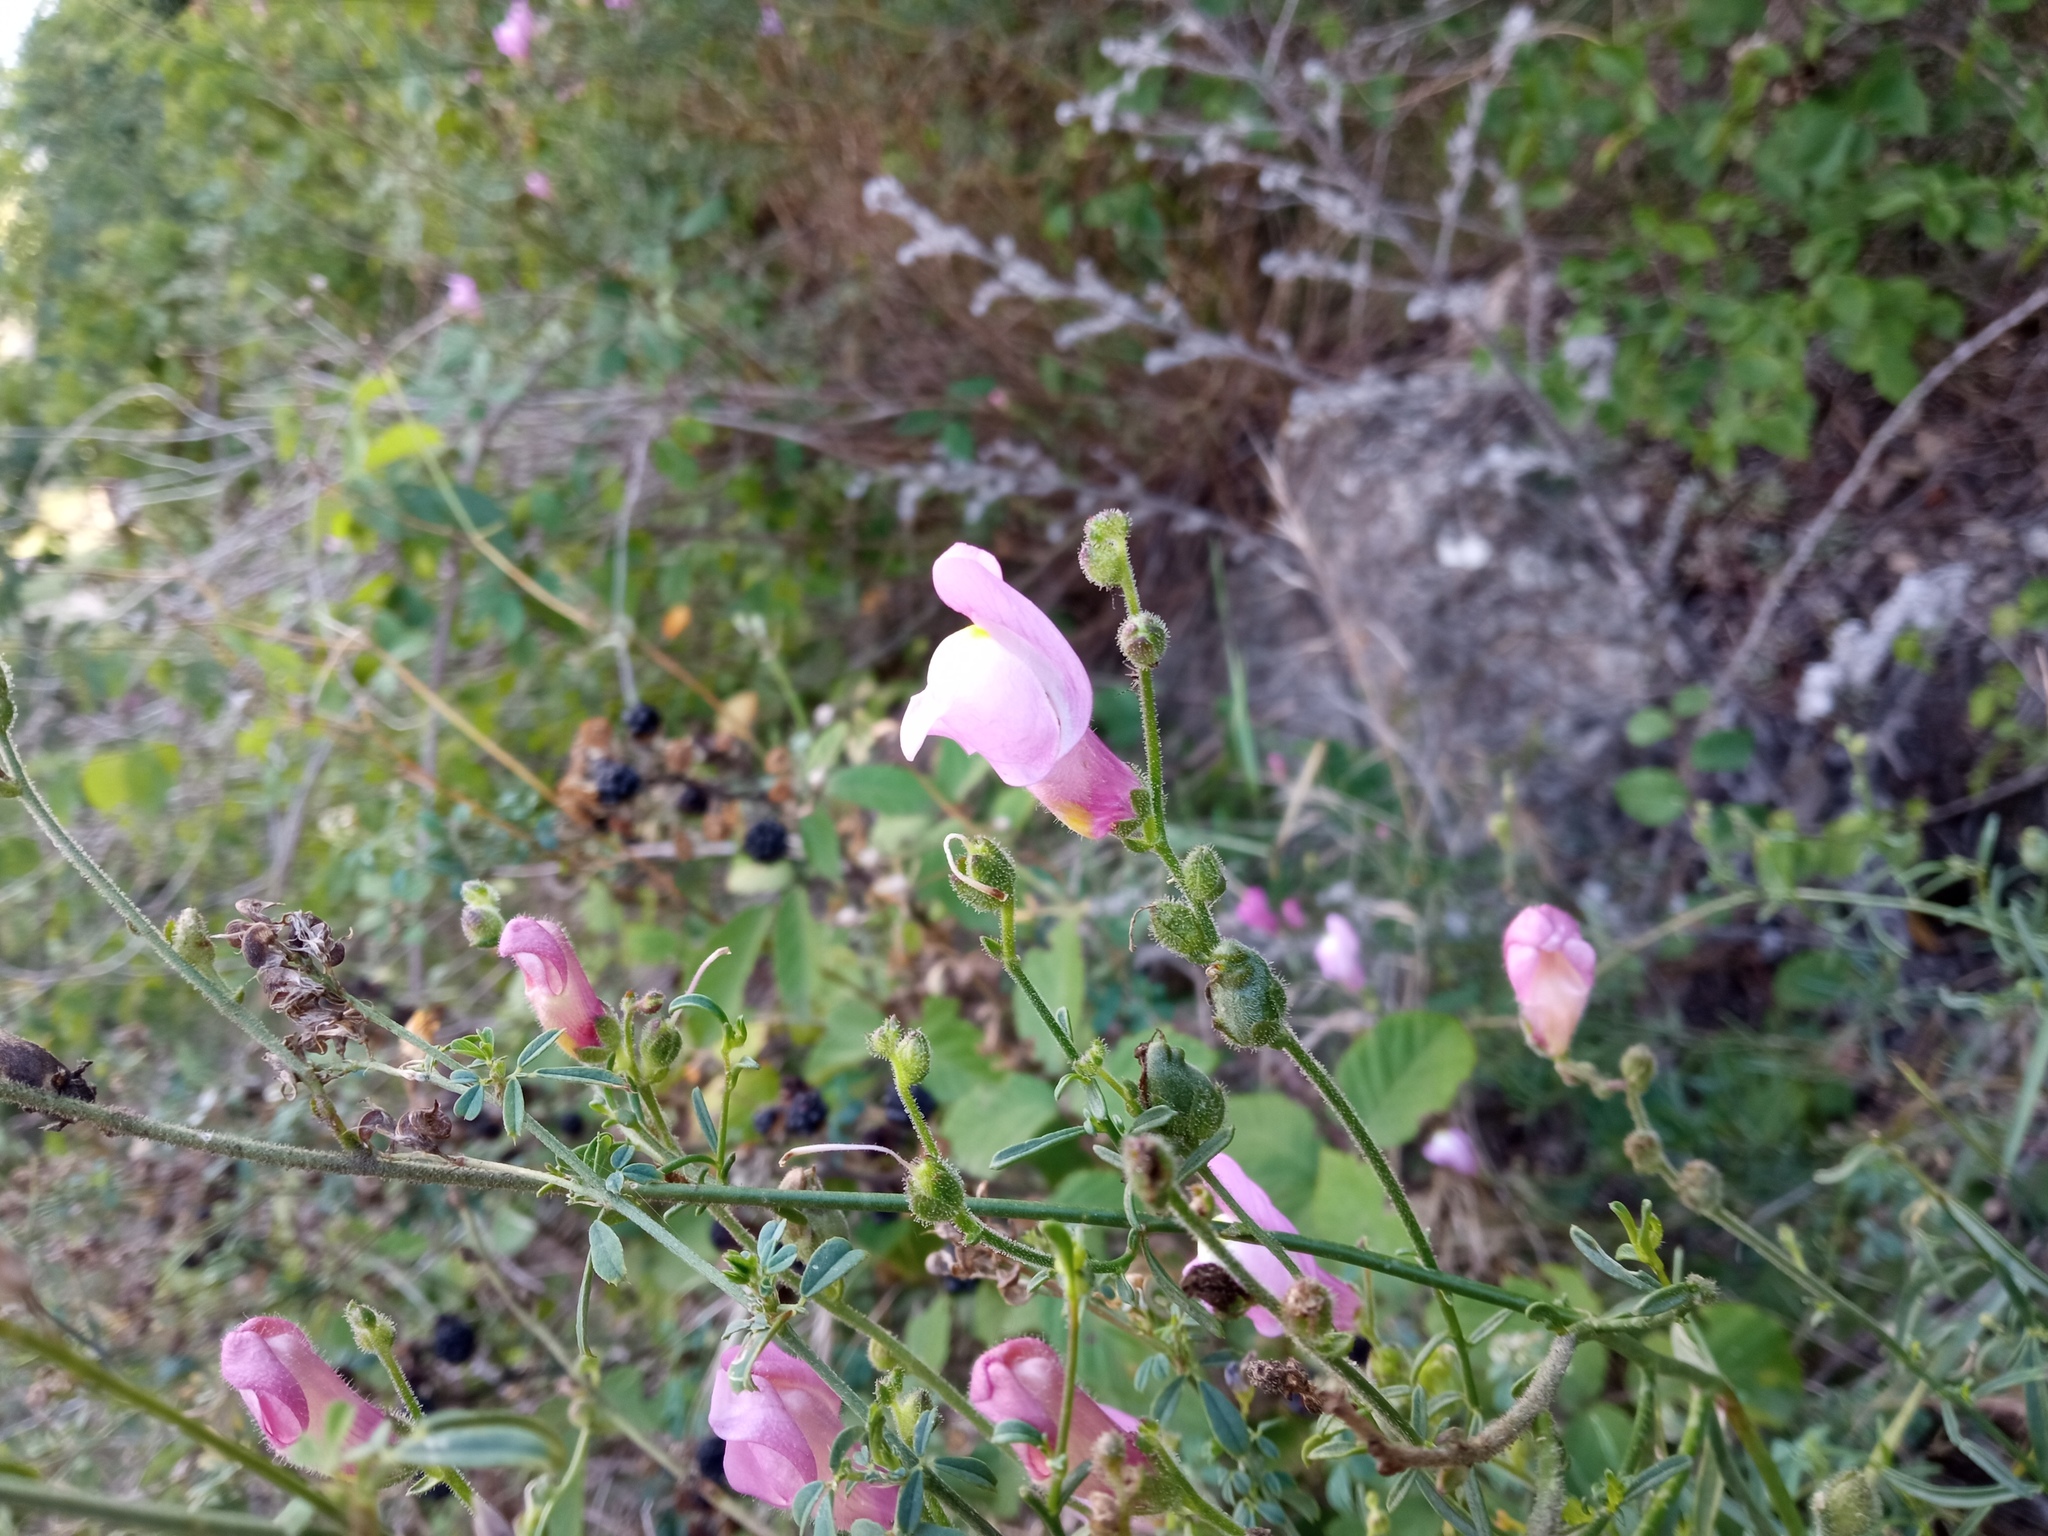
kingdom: Plantae
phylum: Tracheophyta
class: Magnoliopsida
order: Lamiales
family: Plantaginaceae
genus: Antirrhinum
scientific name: Antirrhinum litigiosum
